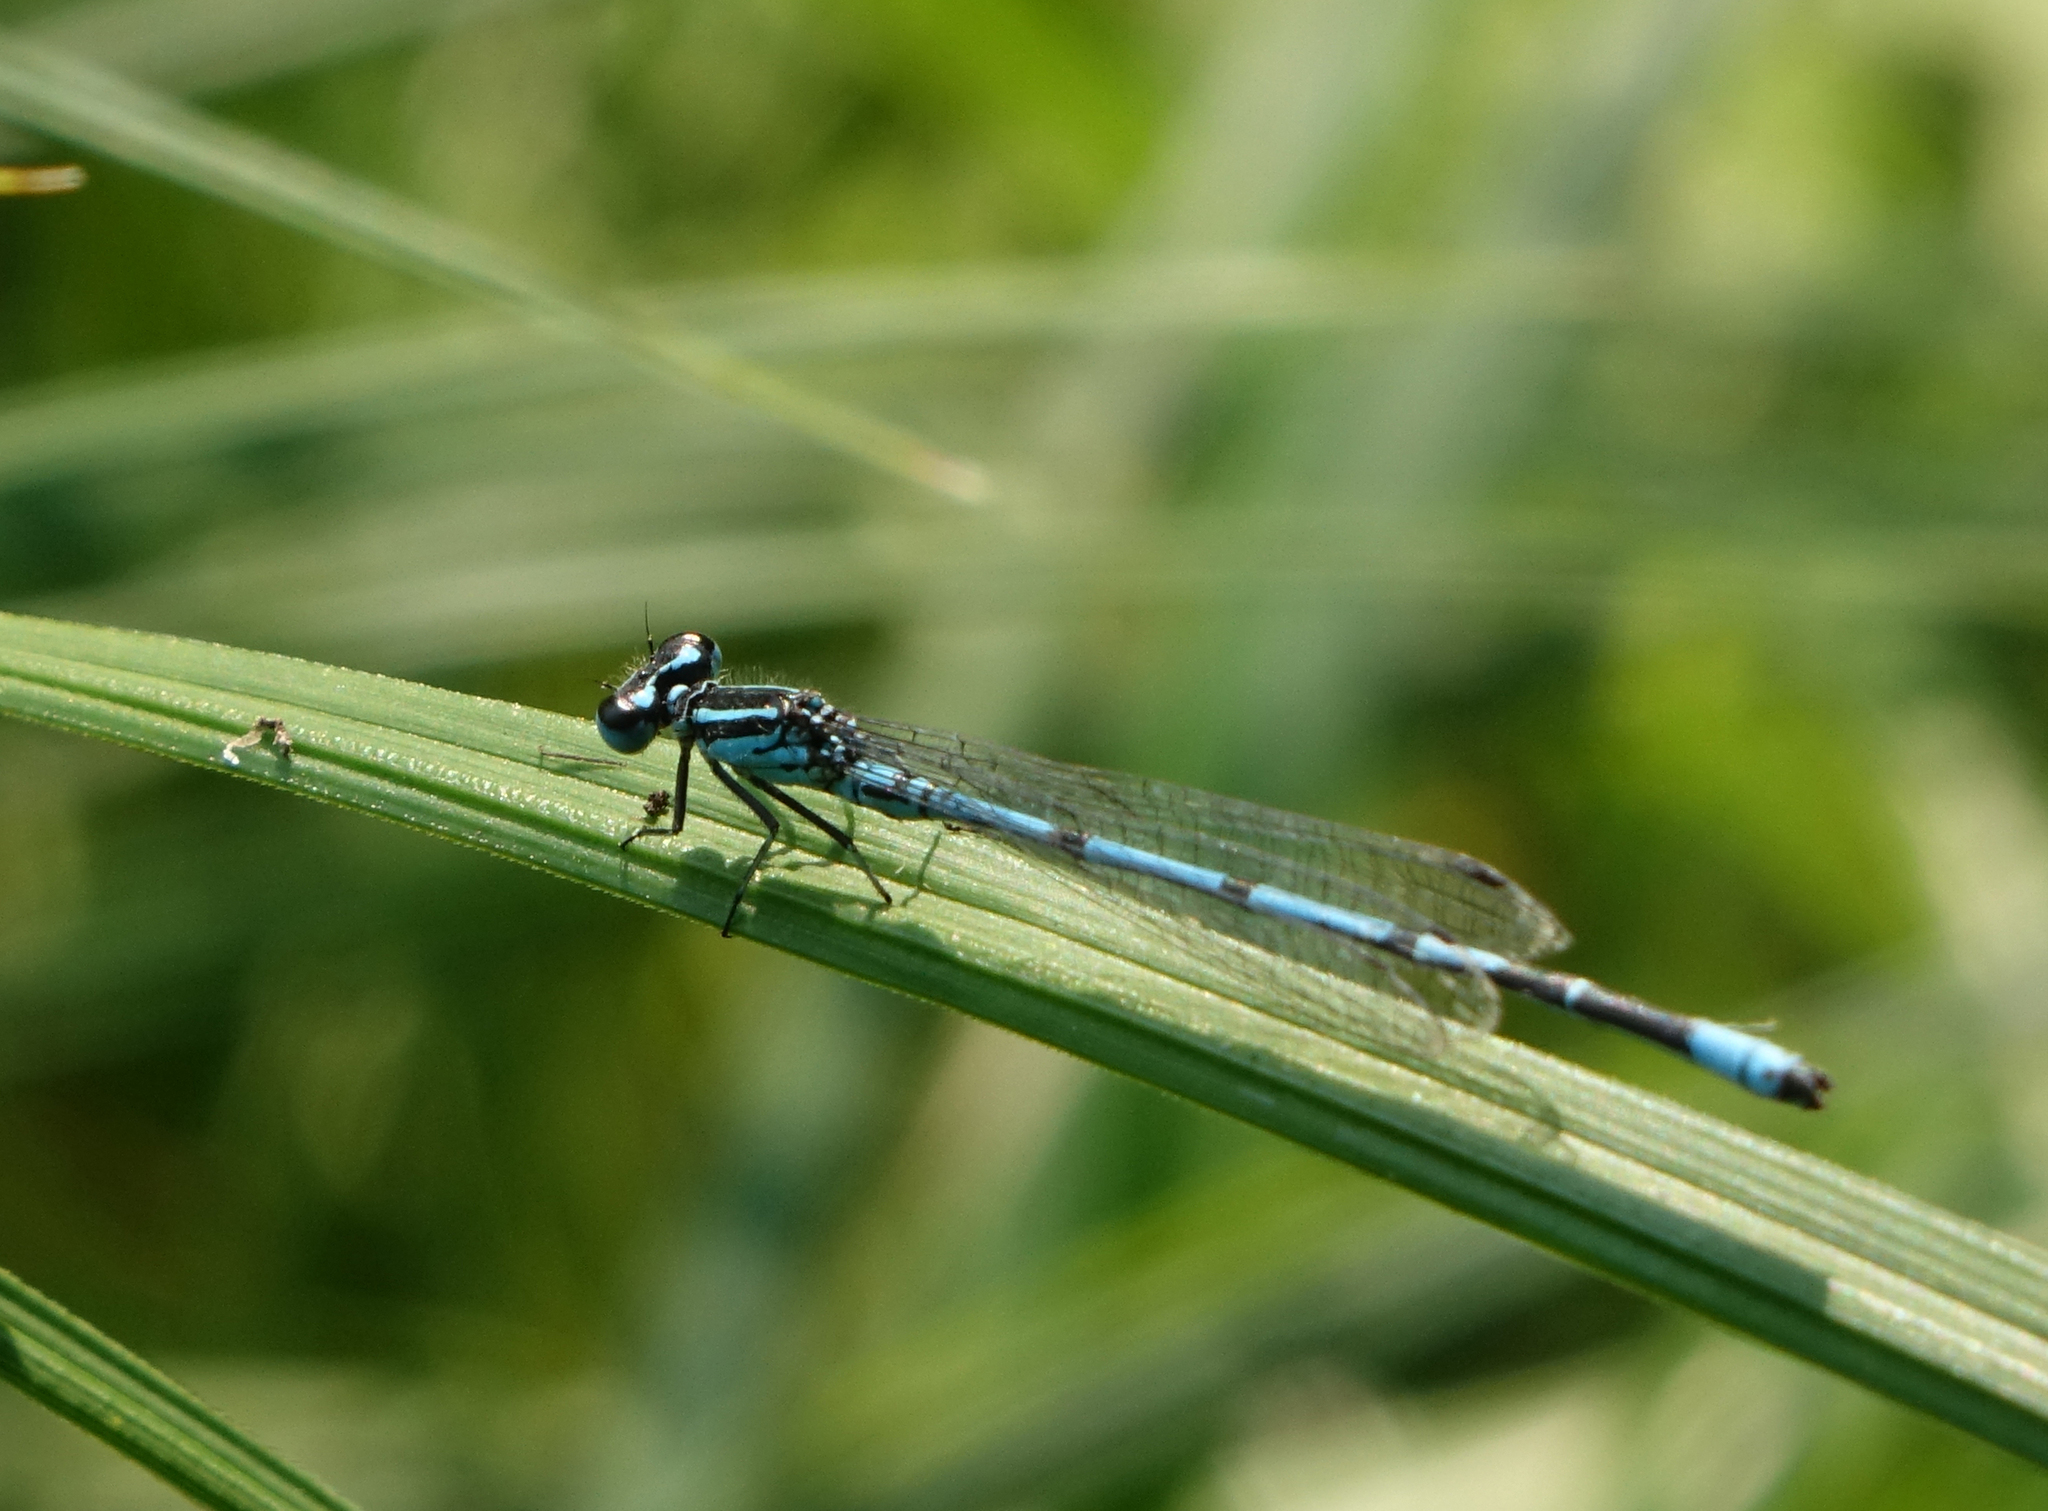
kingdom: Animalia
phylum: Arthropoda
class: Insecta
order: Odonata
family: Coenagrionidae
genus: Coenagrion
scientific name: Coenagrion puella
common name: Azure damselfly
